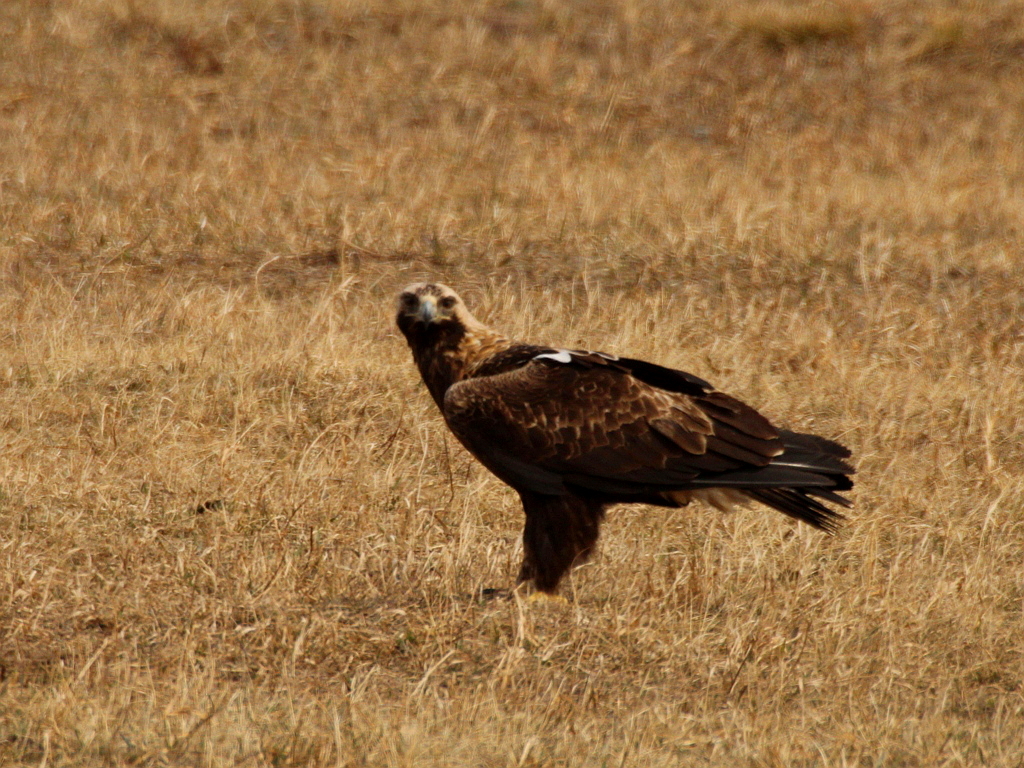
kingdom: Animalia
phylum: Chordata
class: Aves
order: Accipitriformes
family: Accipitridae
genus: Aquila
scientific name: Aquila heliaca
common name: Eastern imperial eagle
